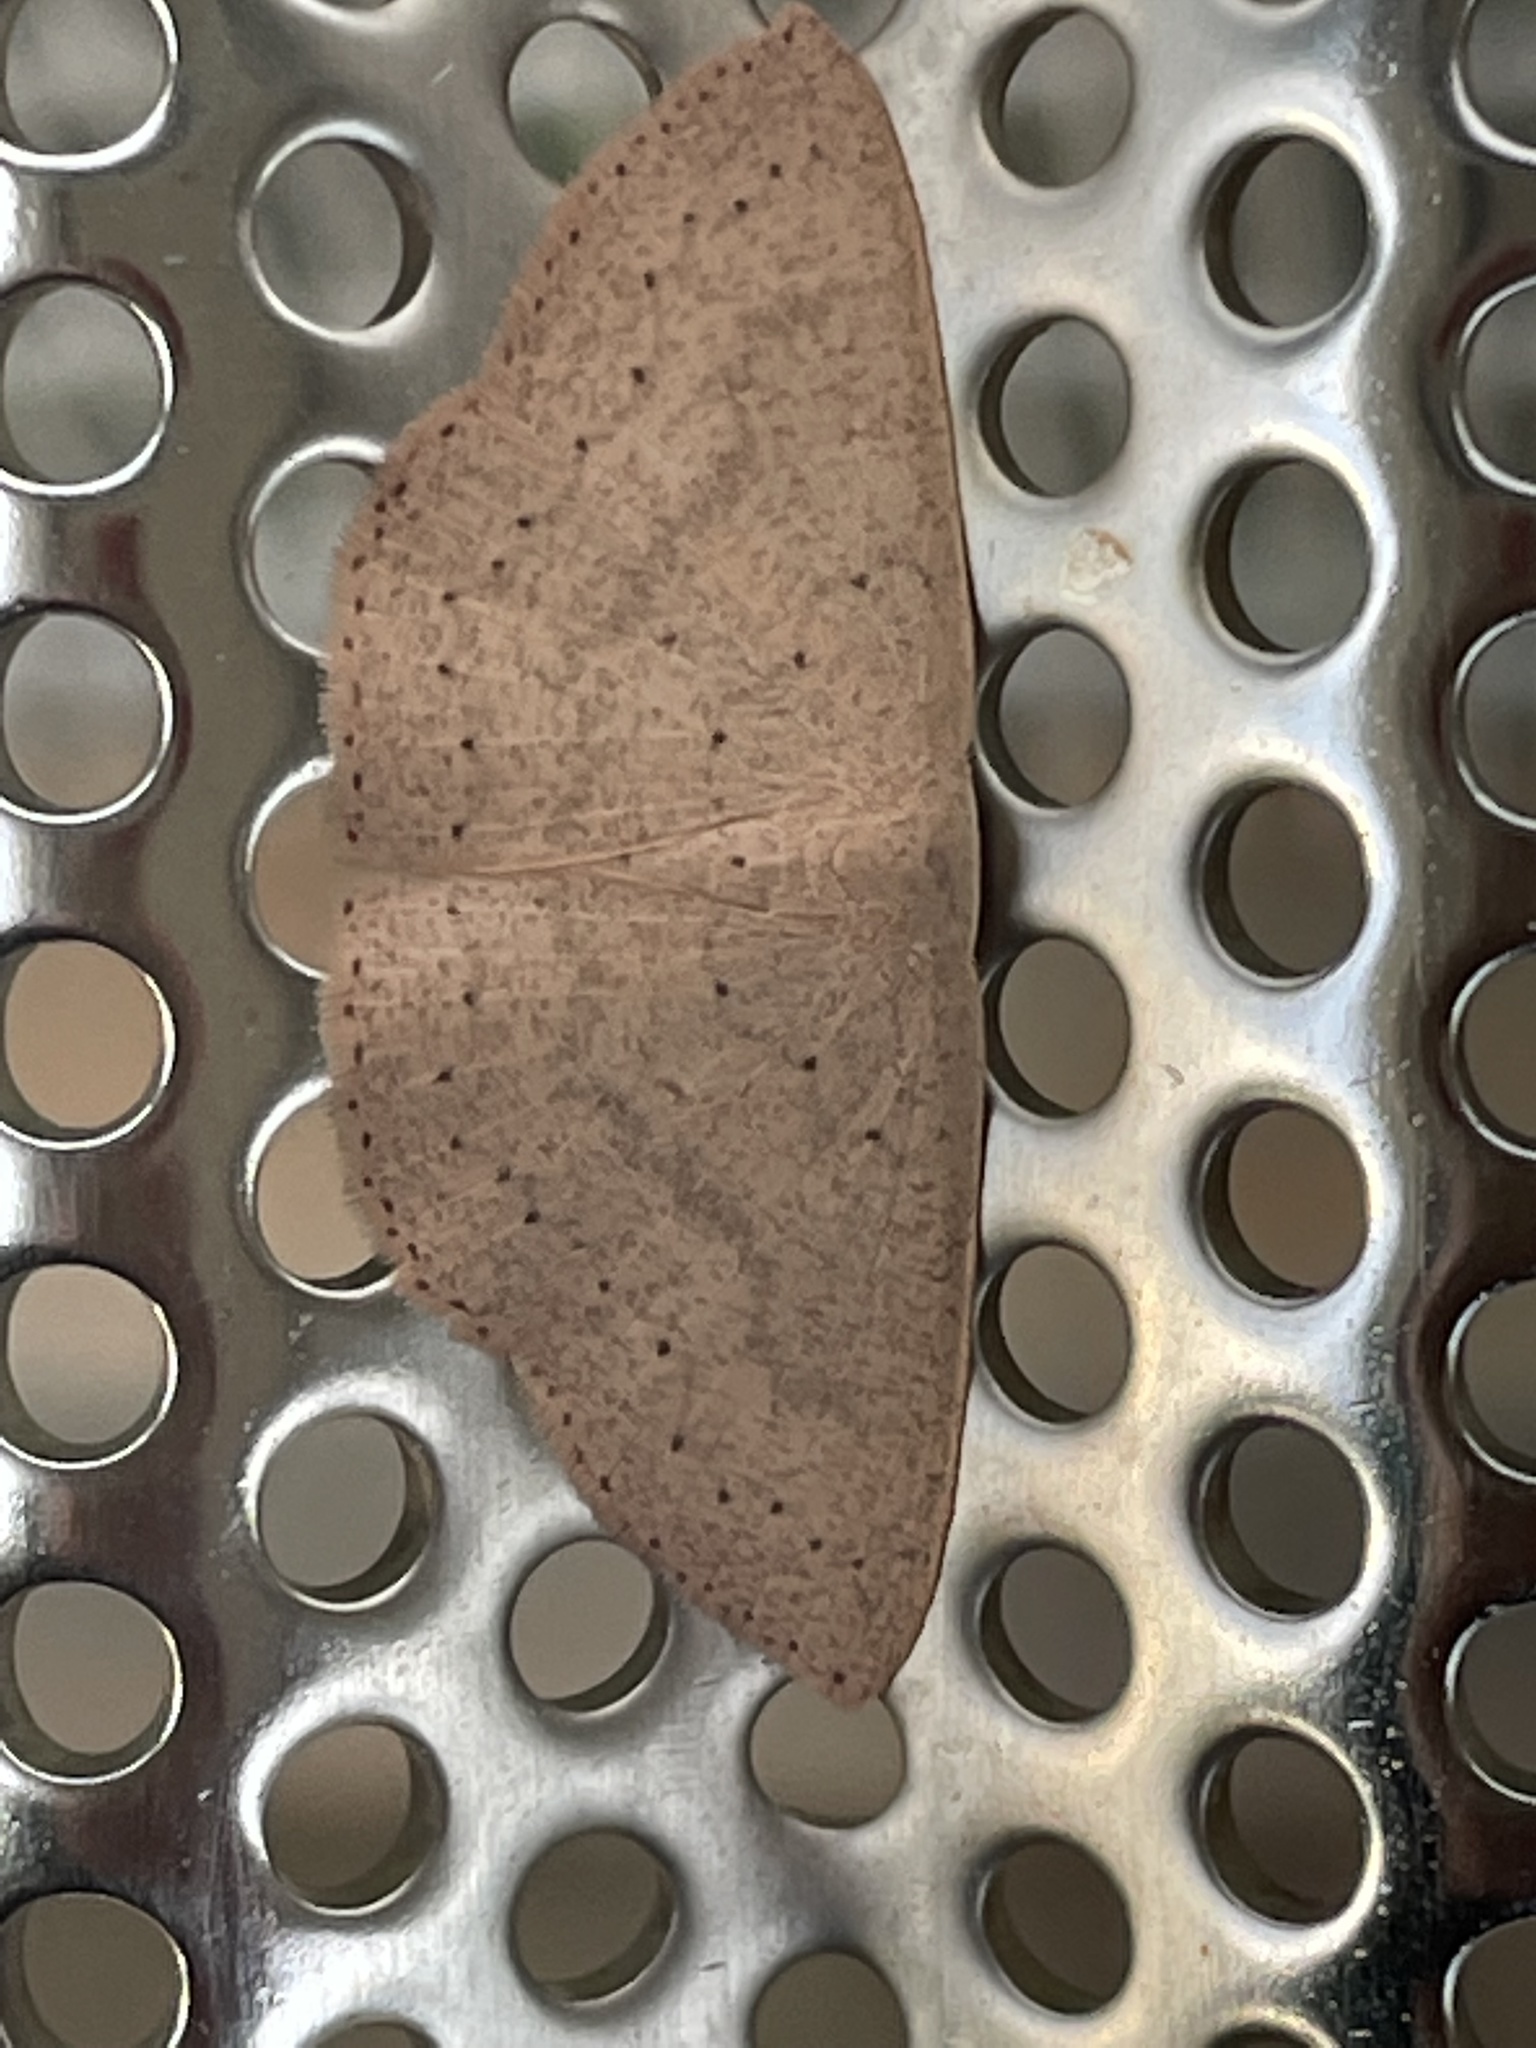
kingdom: Animalia
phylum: Arthropoda
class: Insecta
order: Lepidoptera
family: Geometridae
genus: Cyclophora
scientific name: Cyclophora obstataria
